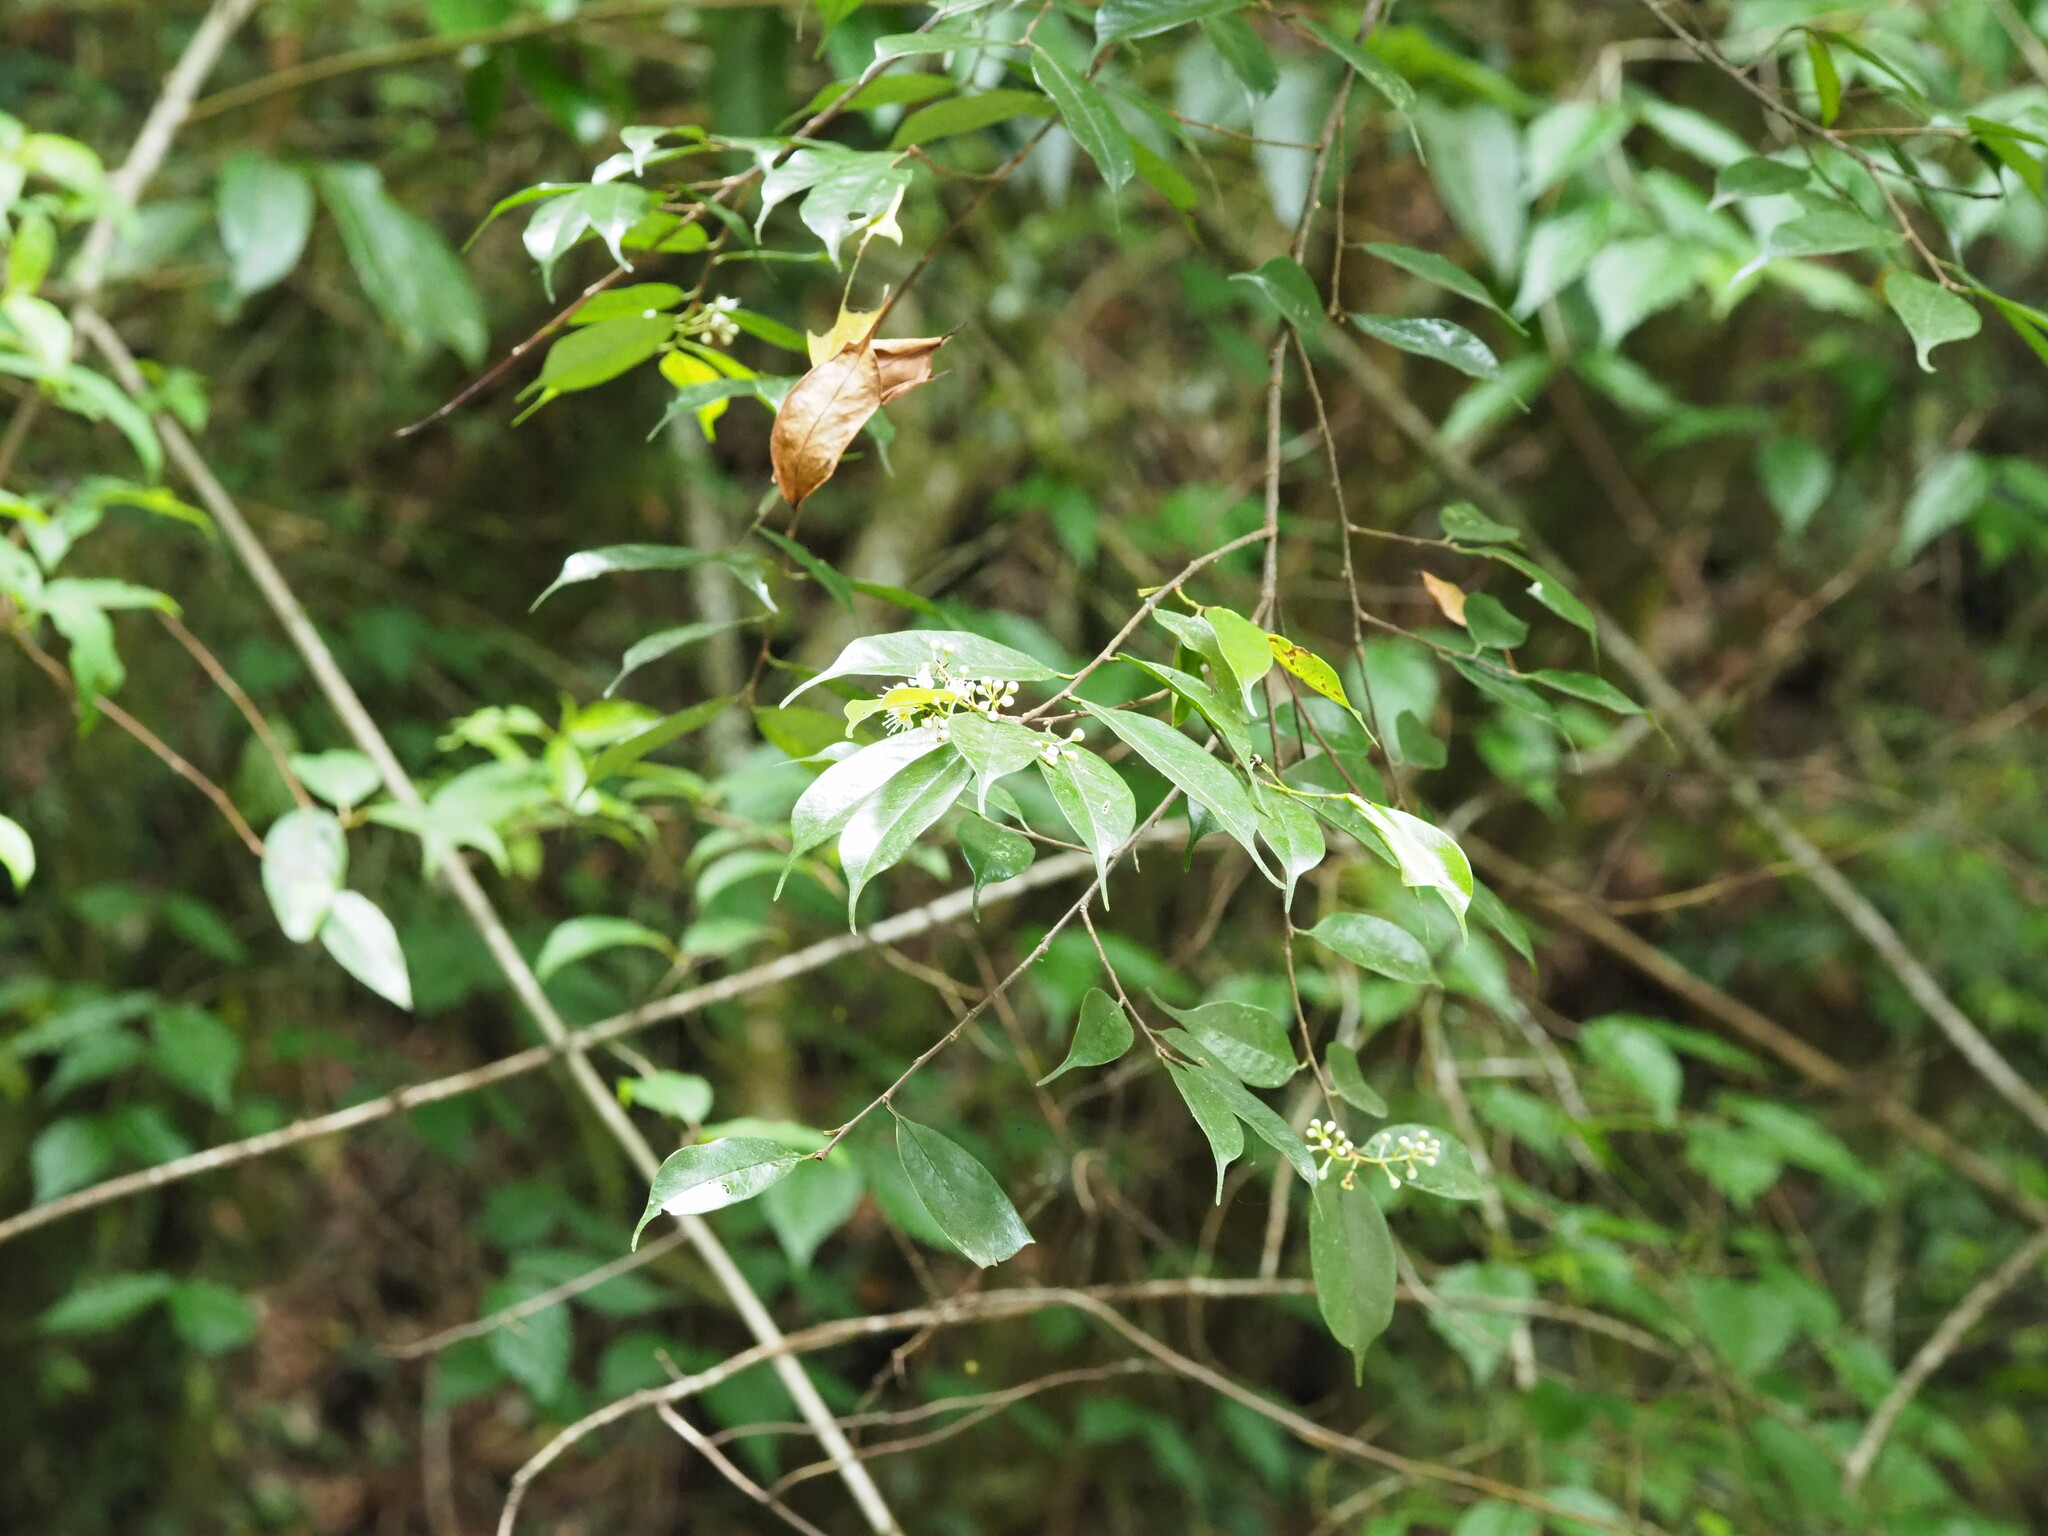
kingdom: Plantae
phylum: Tracheophyta
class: Magnoliopsida
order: Rosales
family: Rosaceae
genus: Prunus
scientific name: Prunus phaeosticta
